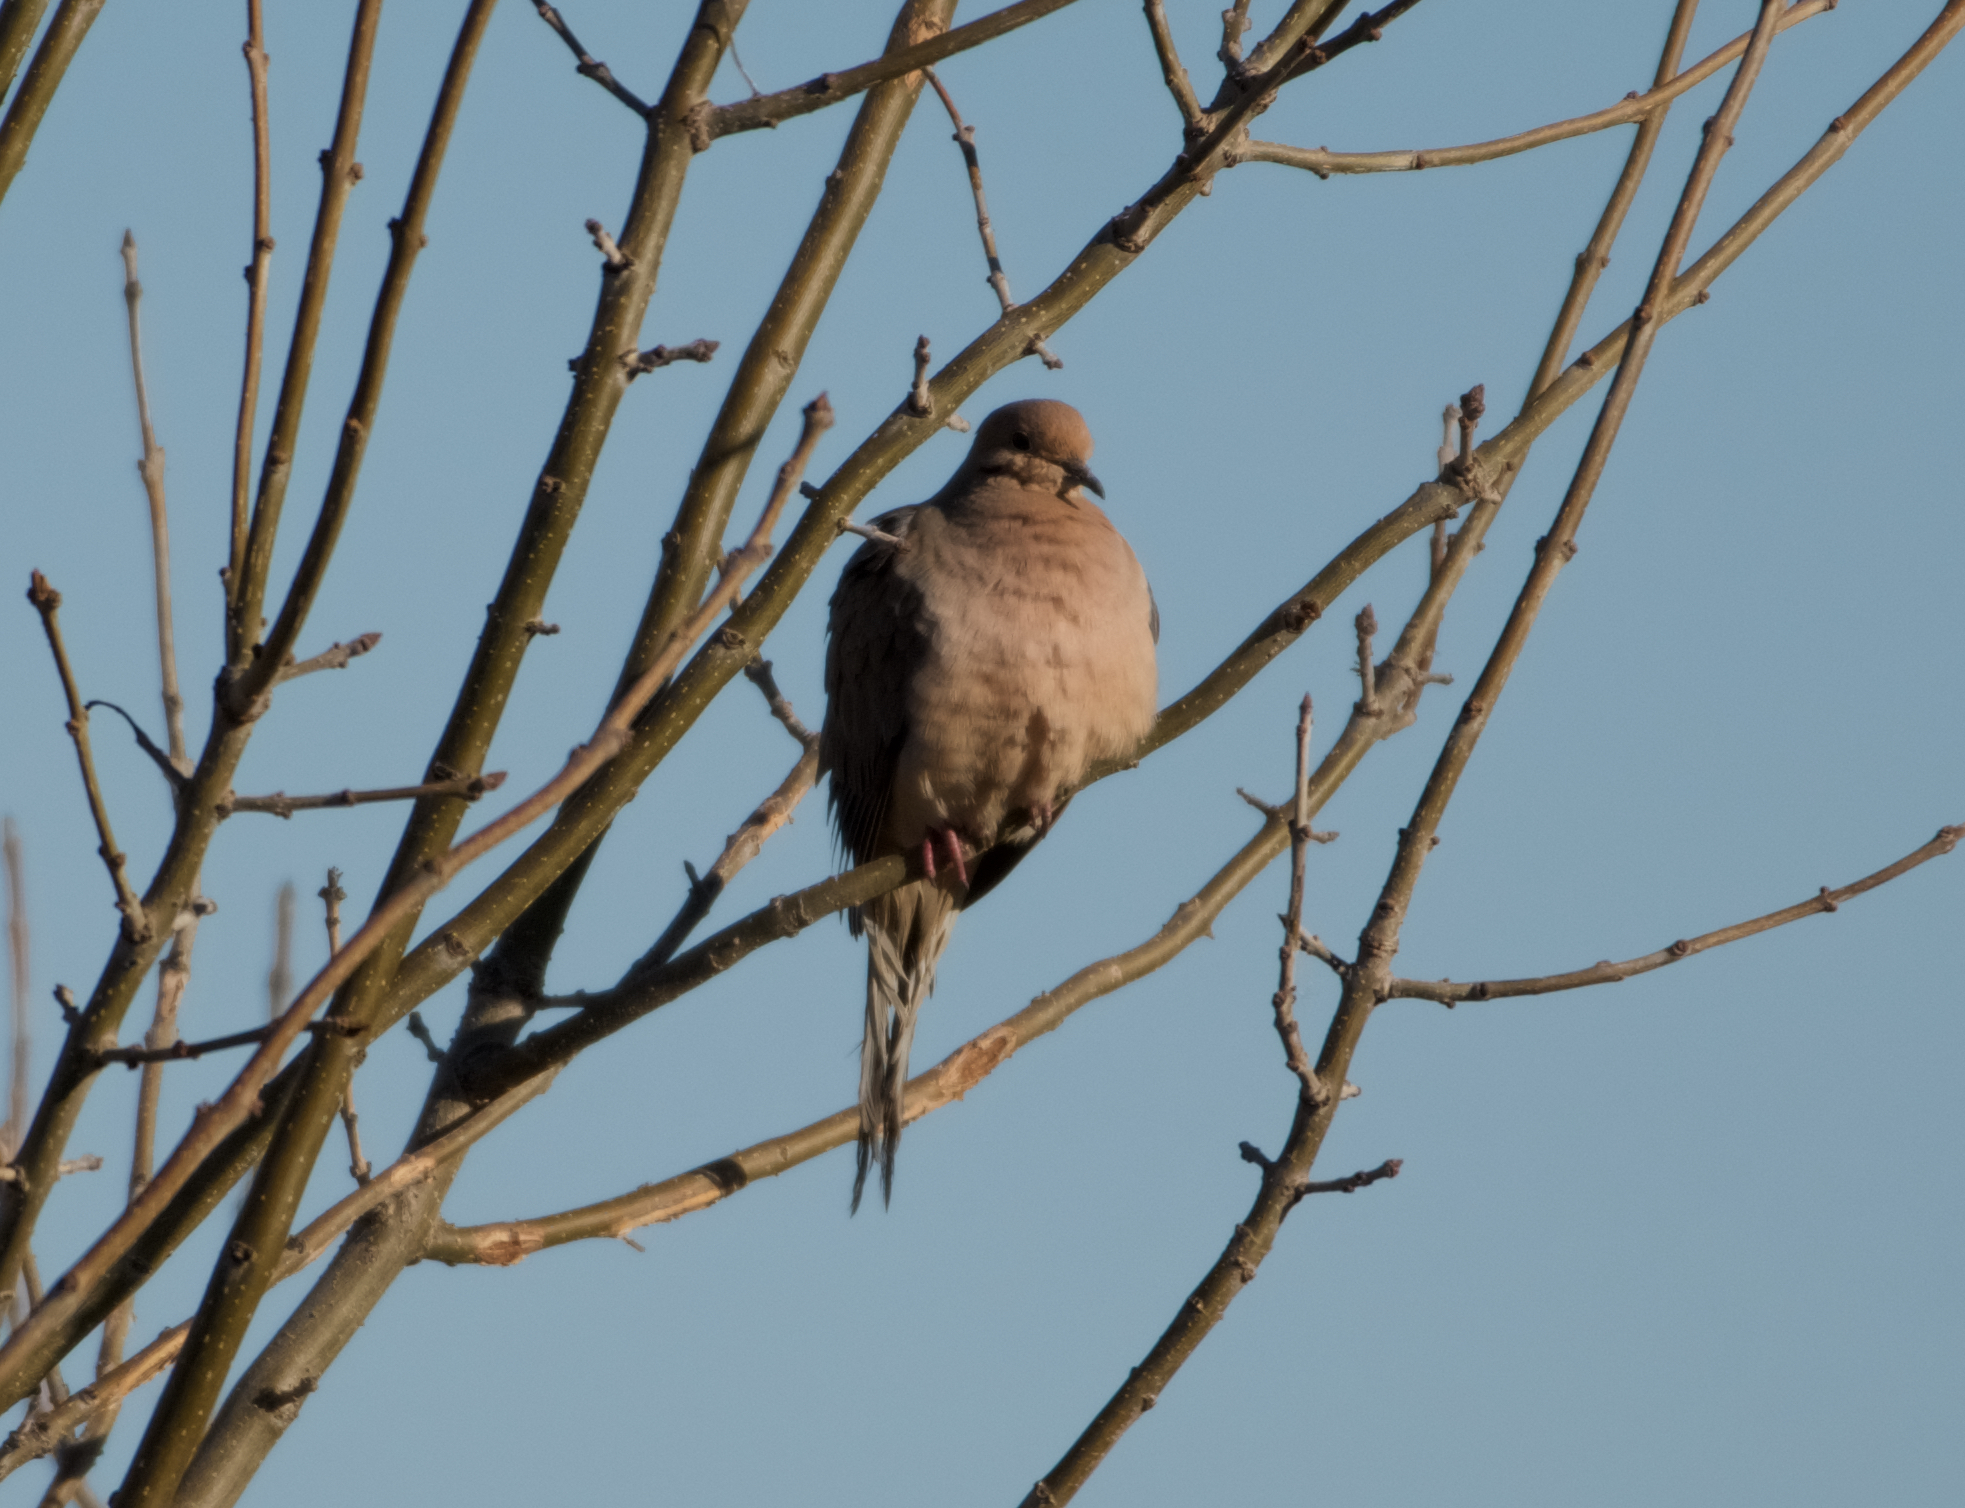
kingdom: Animalia
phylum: Chordata
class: Aves
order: Columbiformes
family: Columbidae
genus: Zenaida
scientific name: Zenaida macroura
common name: Mourning dove
